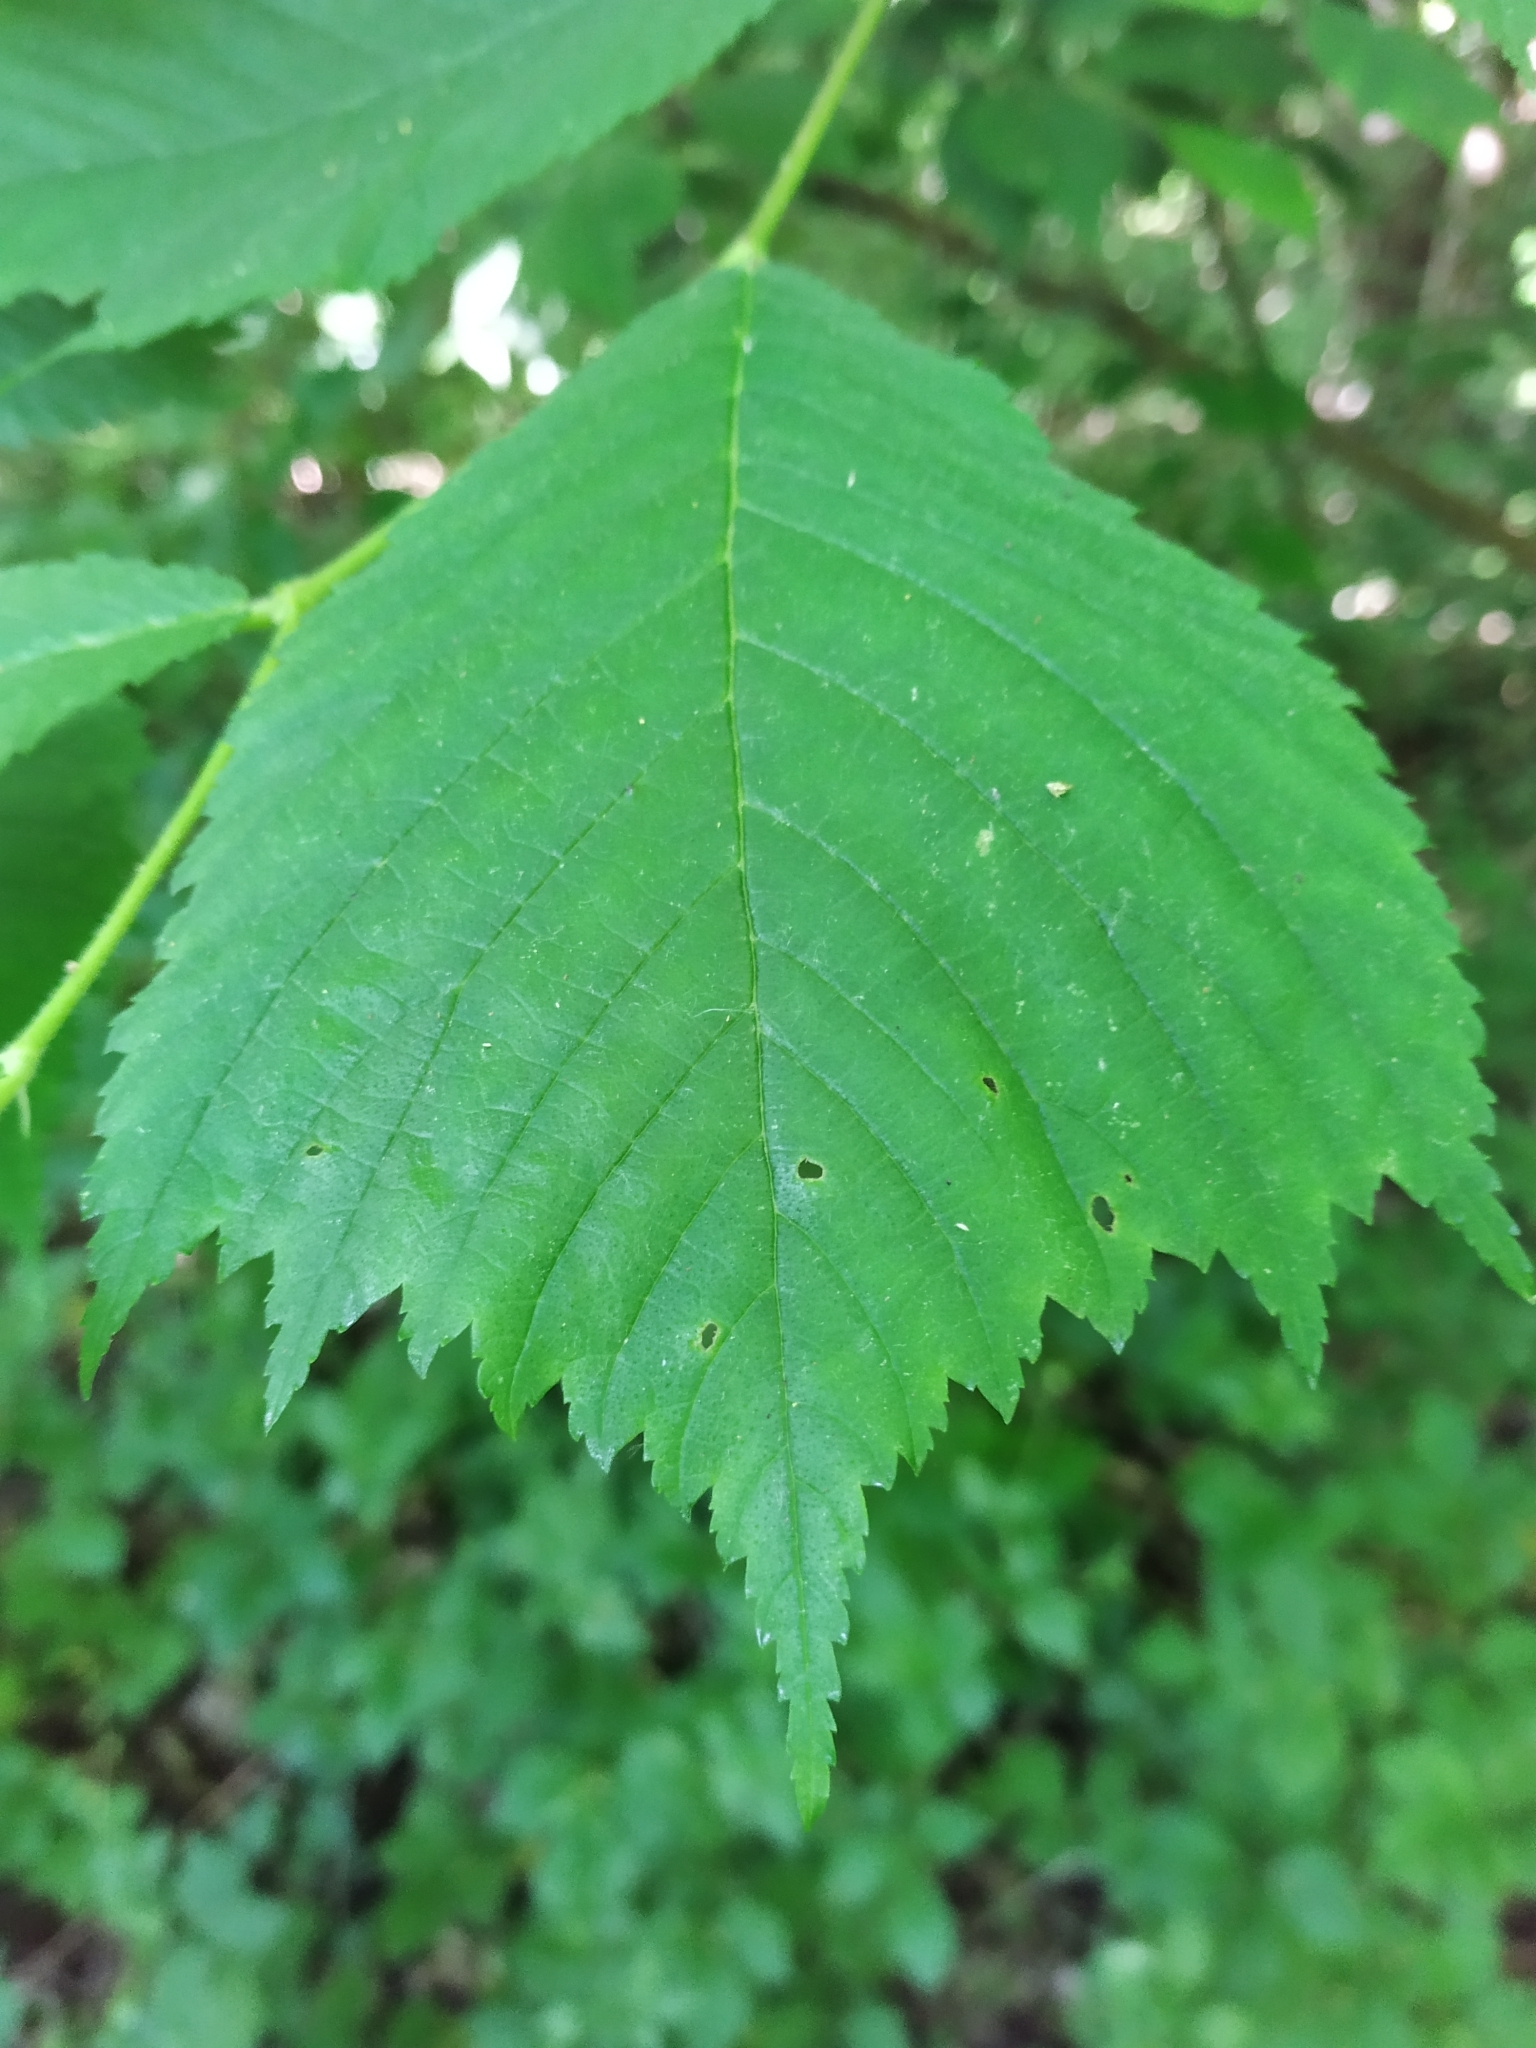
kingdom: Plantae
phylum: Tracheophyta
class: Magnoliopsida
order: Rosales
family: Ulmaceae
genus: Ulmus
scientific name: Ulmus glabra
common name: Wych elm
